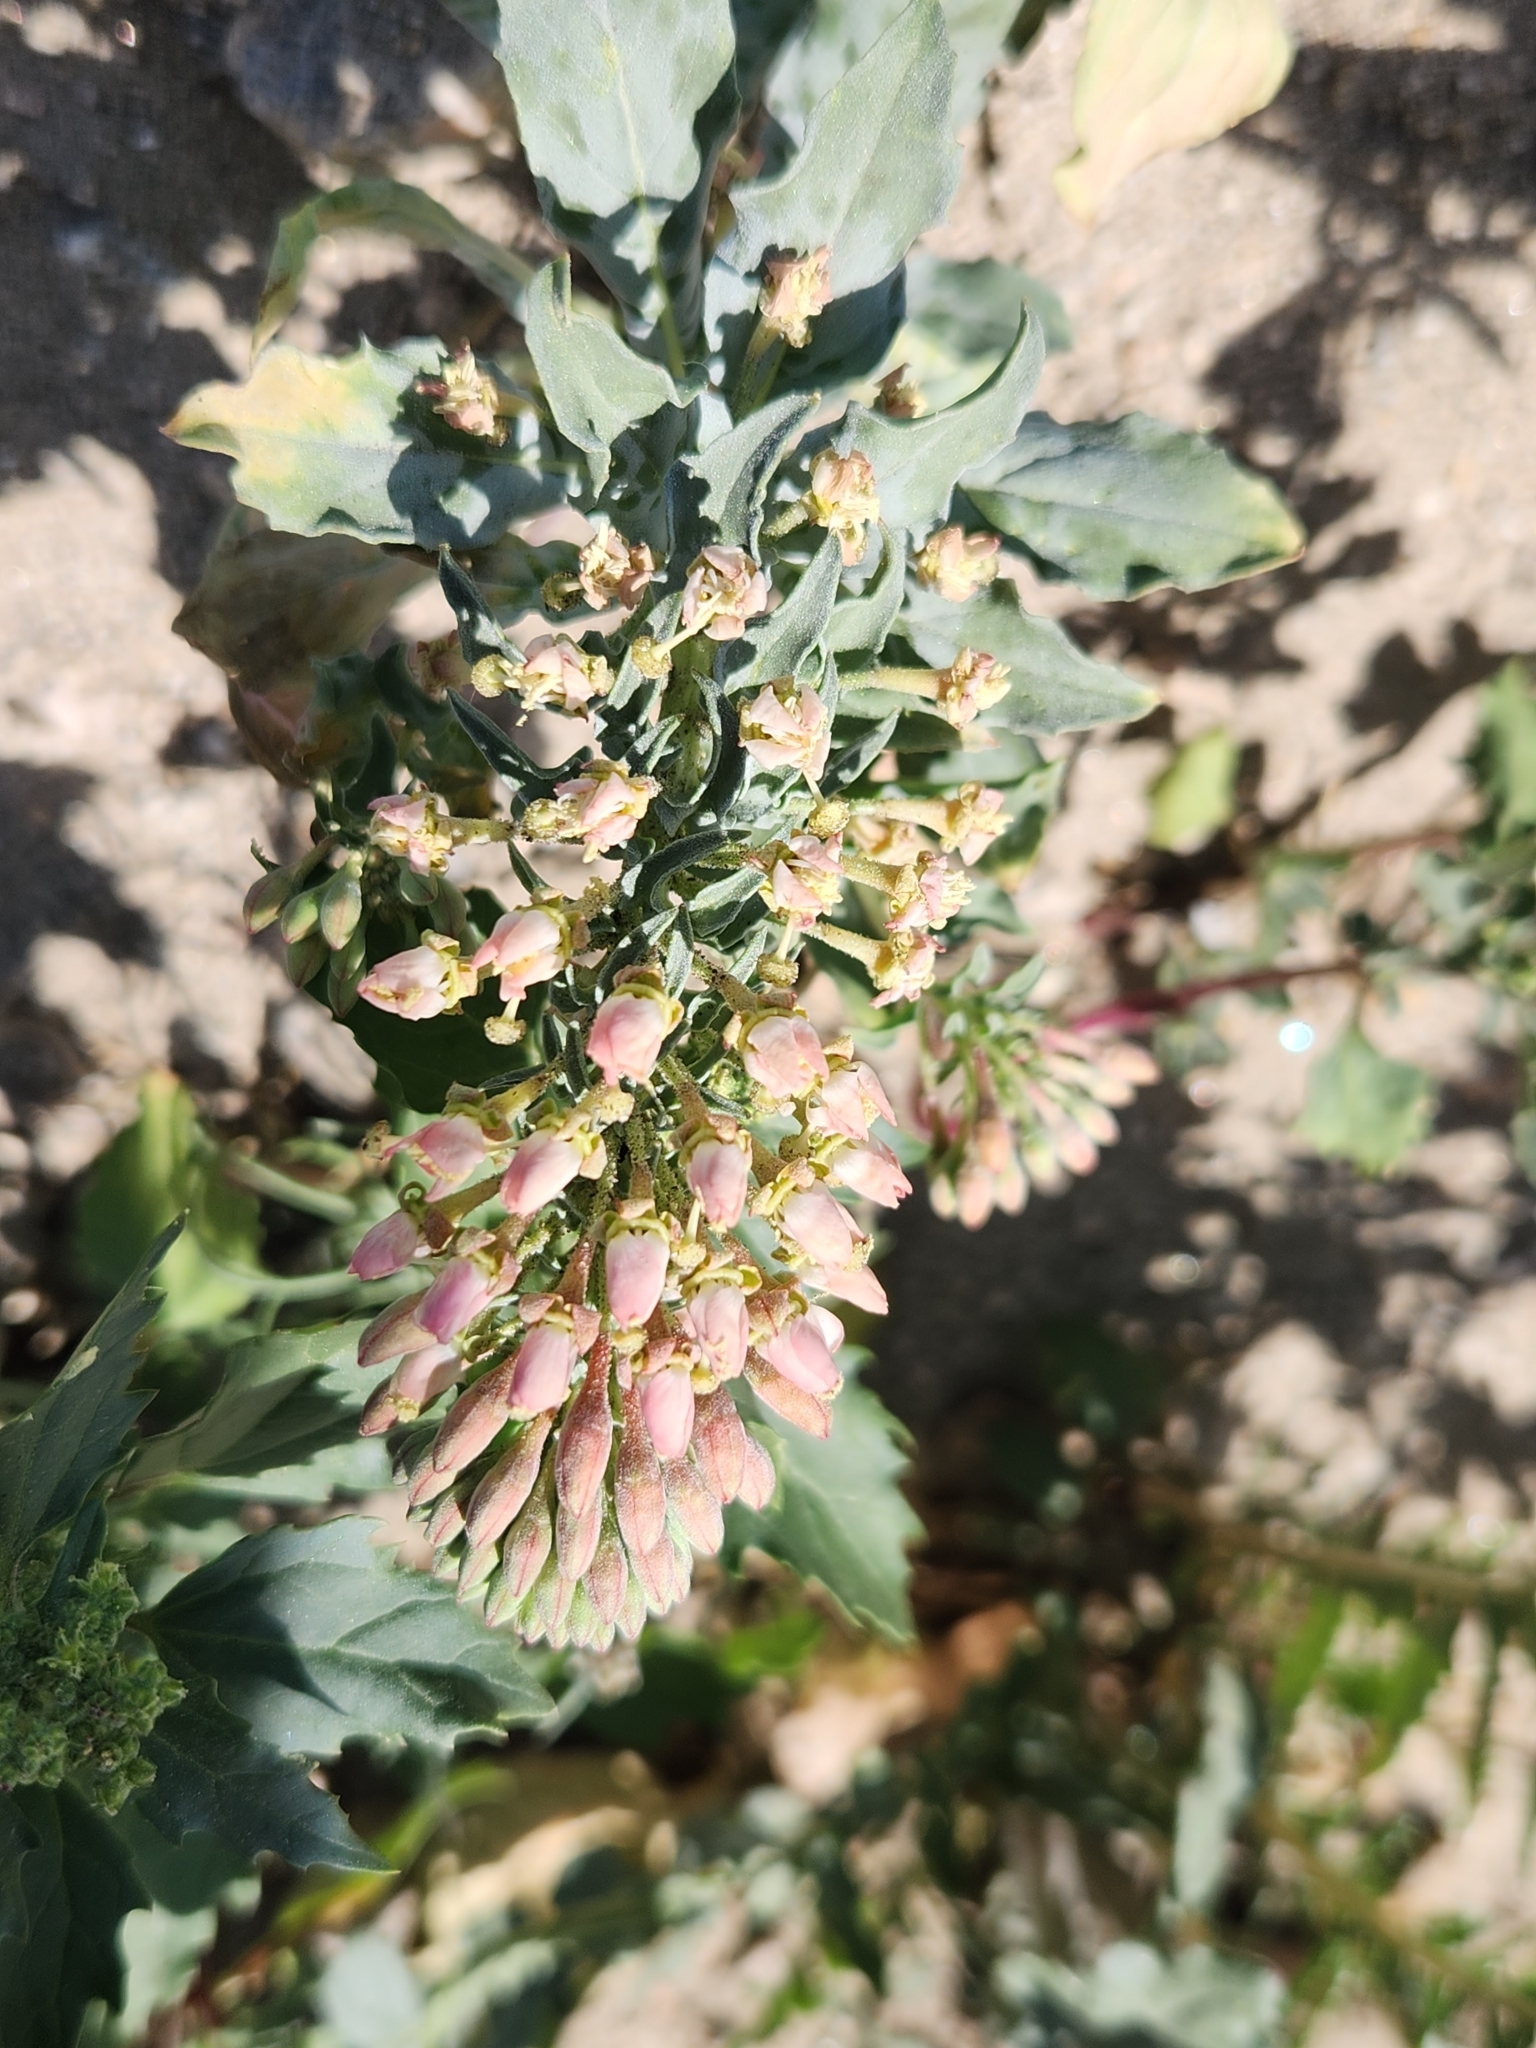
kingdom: Plantae
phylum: Tracheophyta
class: Magnoliopsida
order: Myrtales
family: Onagraceae
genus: Eremothera
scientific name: Eremothera boothii
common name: Booth's evening primrose
